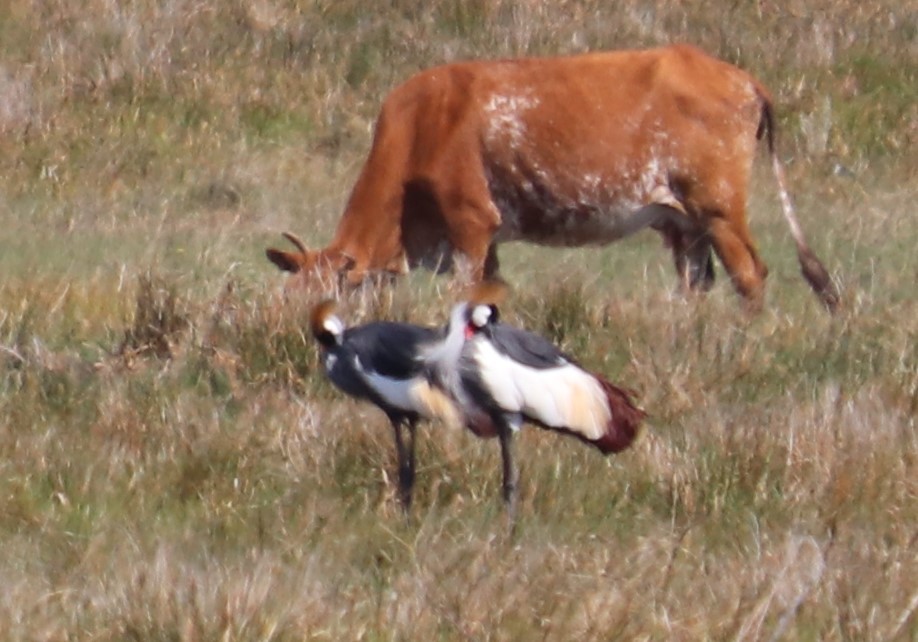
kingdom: Animalia
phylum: Chordata
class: Aves
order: Gruiformes
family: Gruidae
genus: Balearica
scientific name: Balearica regulorum
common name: Grey crowned crane
